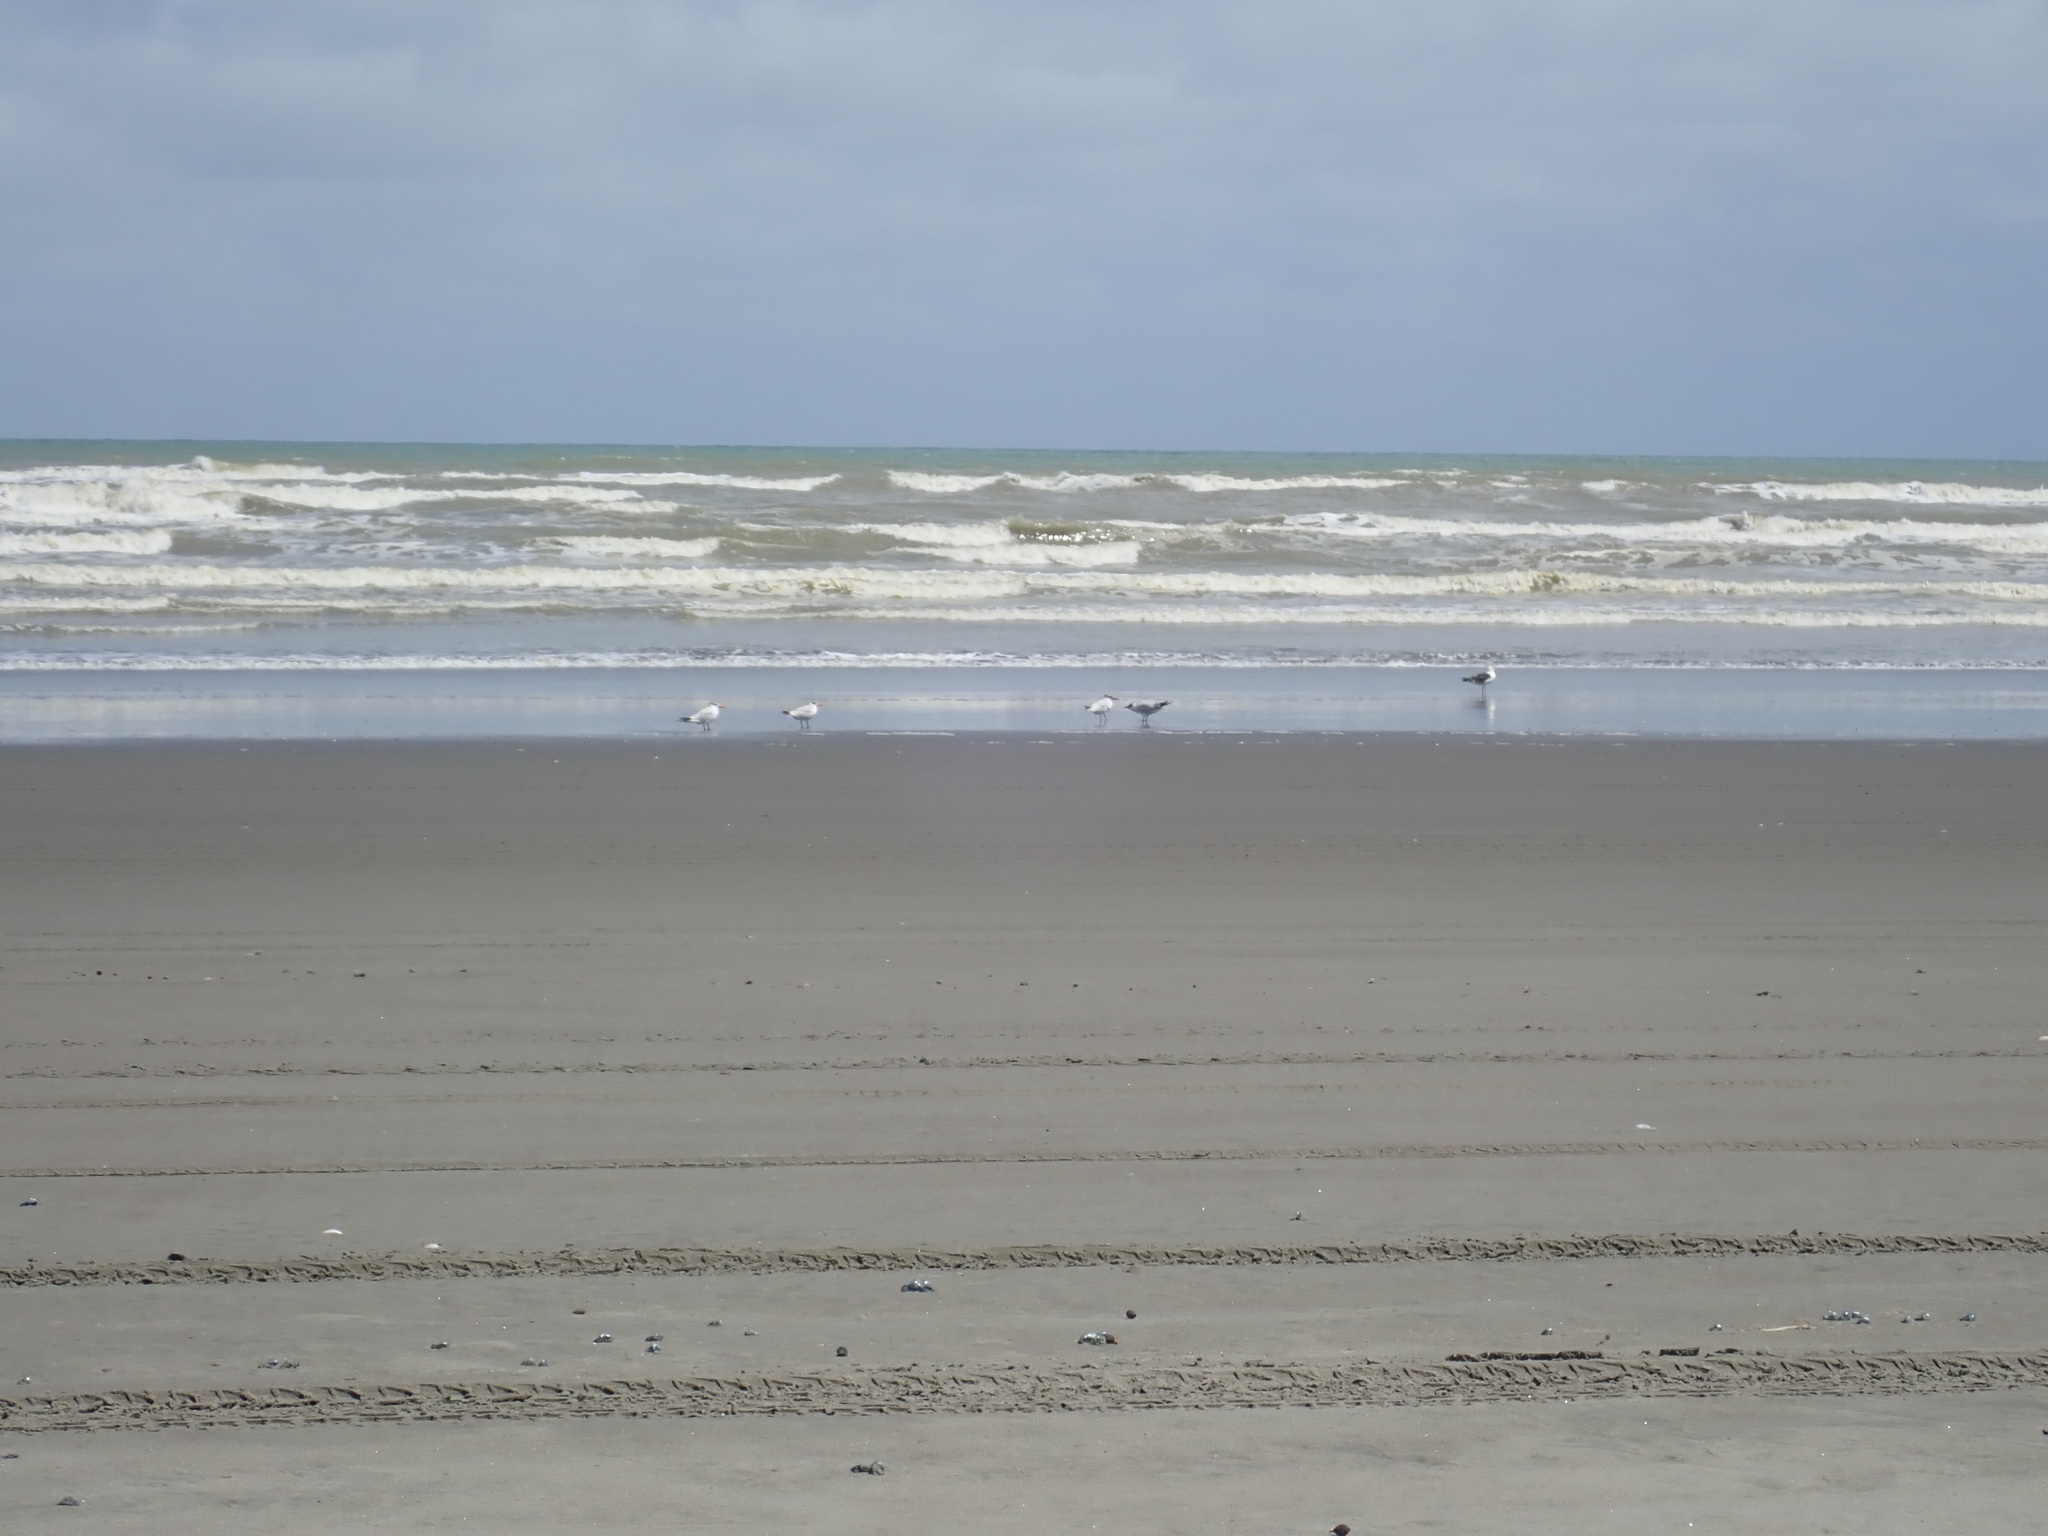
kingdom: Animalia
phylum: Chordata
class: Aves
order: Charadriiformes
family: Laridae
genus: Hydroprogne
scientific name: Hydroprogne caspia
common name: Caspian tern
